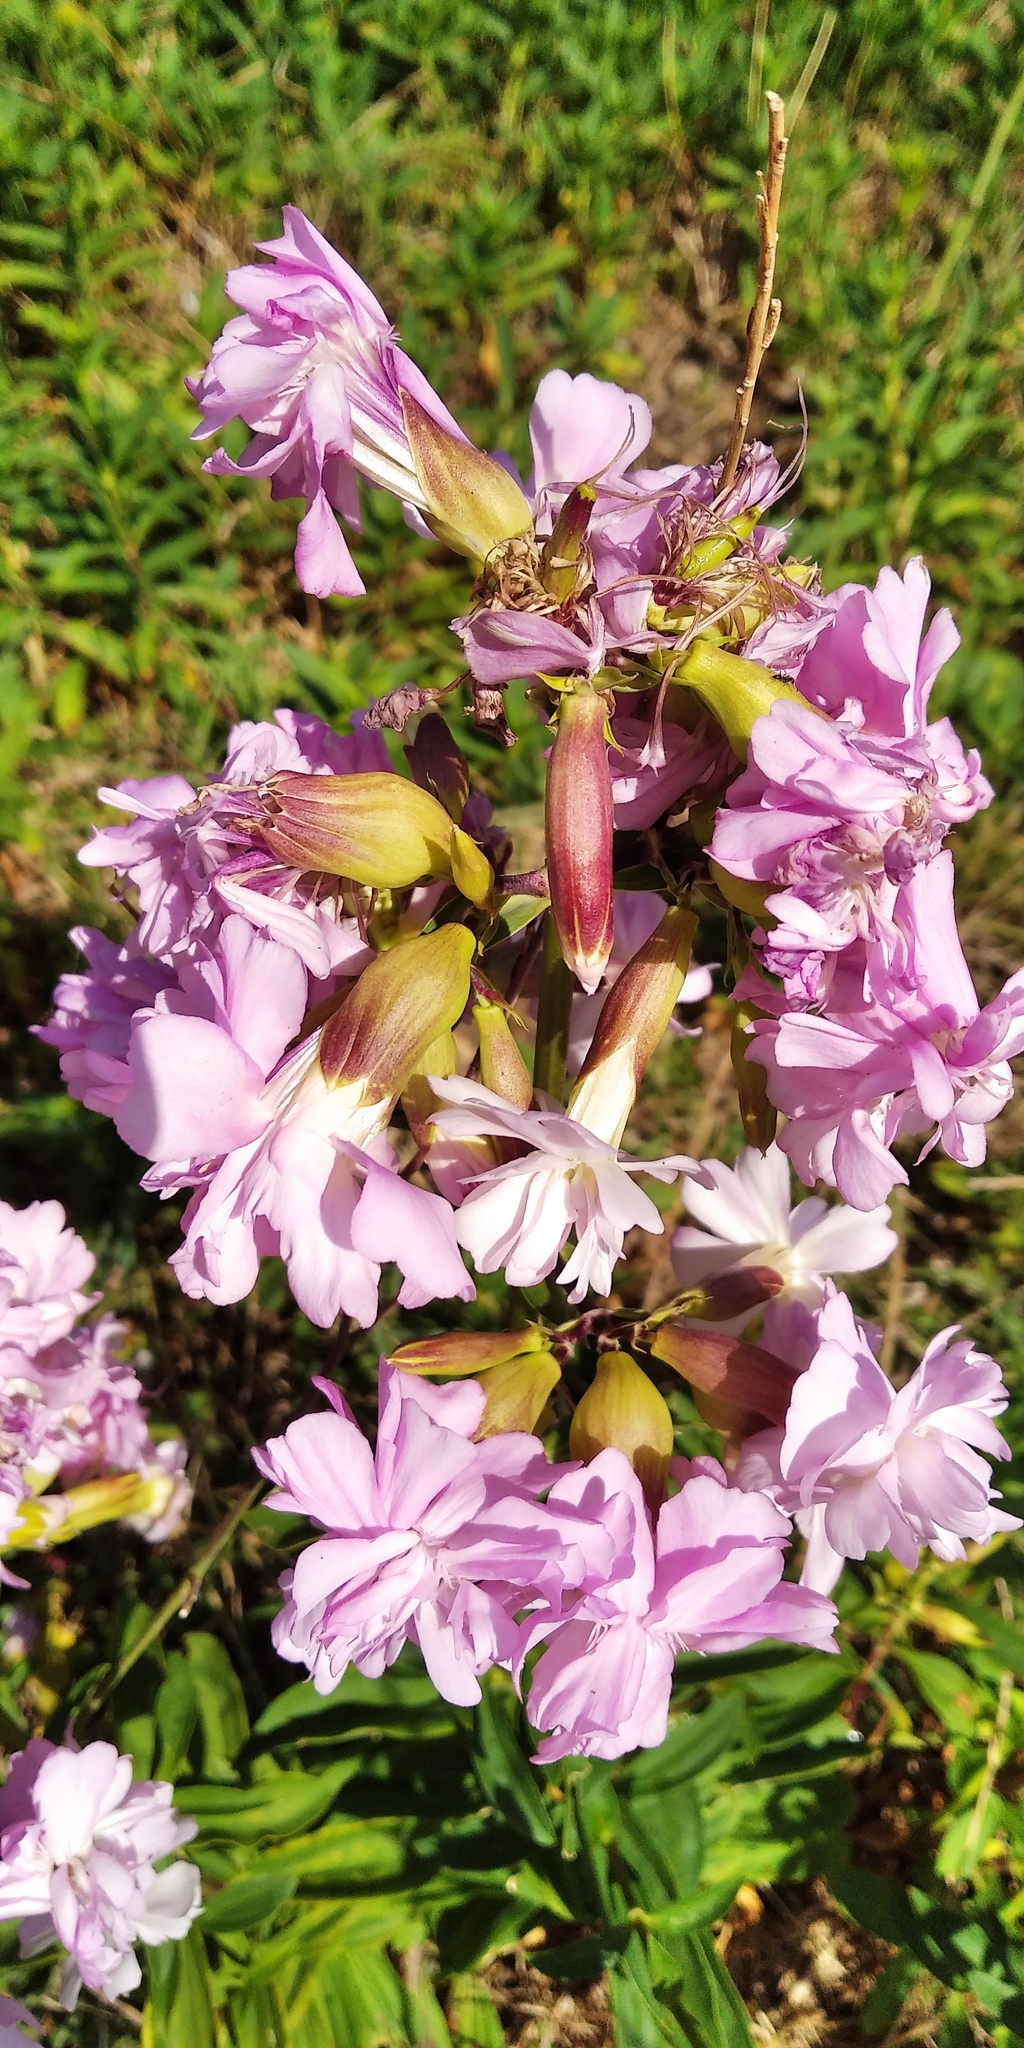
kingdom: Plantae
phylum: Tracheophyta
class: Magnoliopsida
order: Caryophyllales
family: Caryophyllaceae
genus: Saponaria
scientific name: Saponaria officinalis
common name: Soapwort
